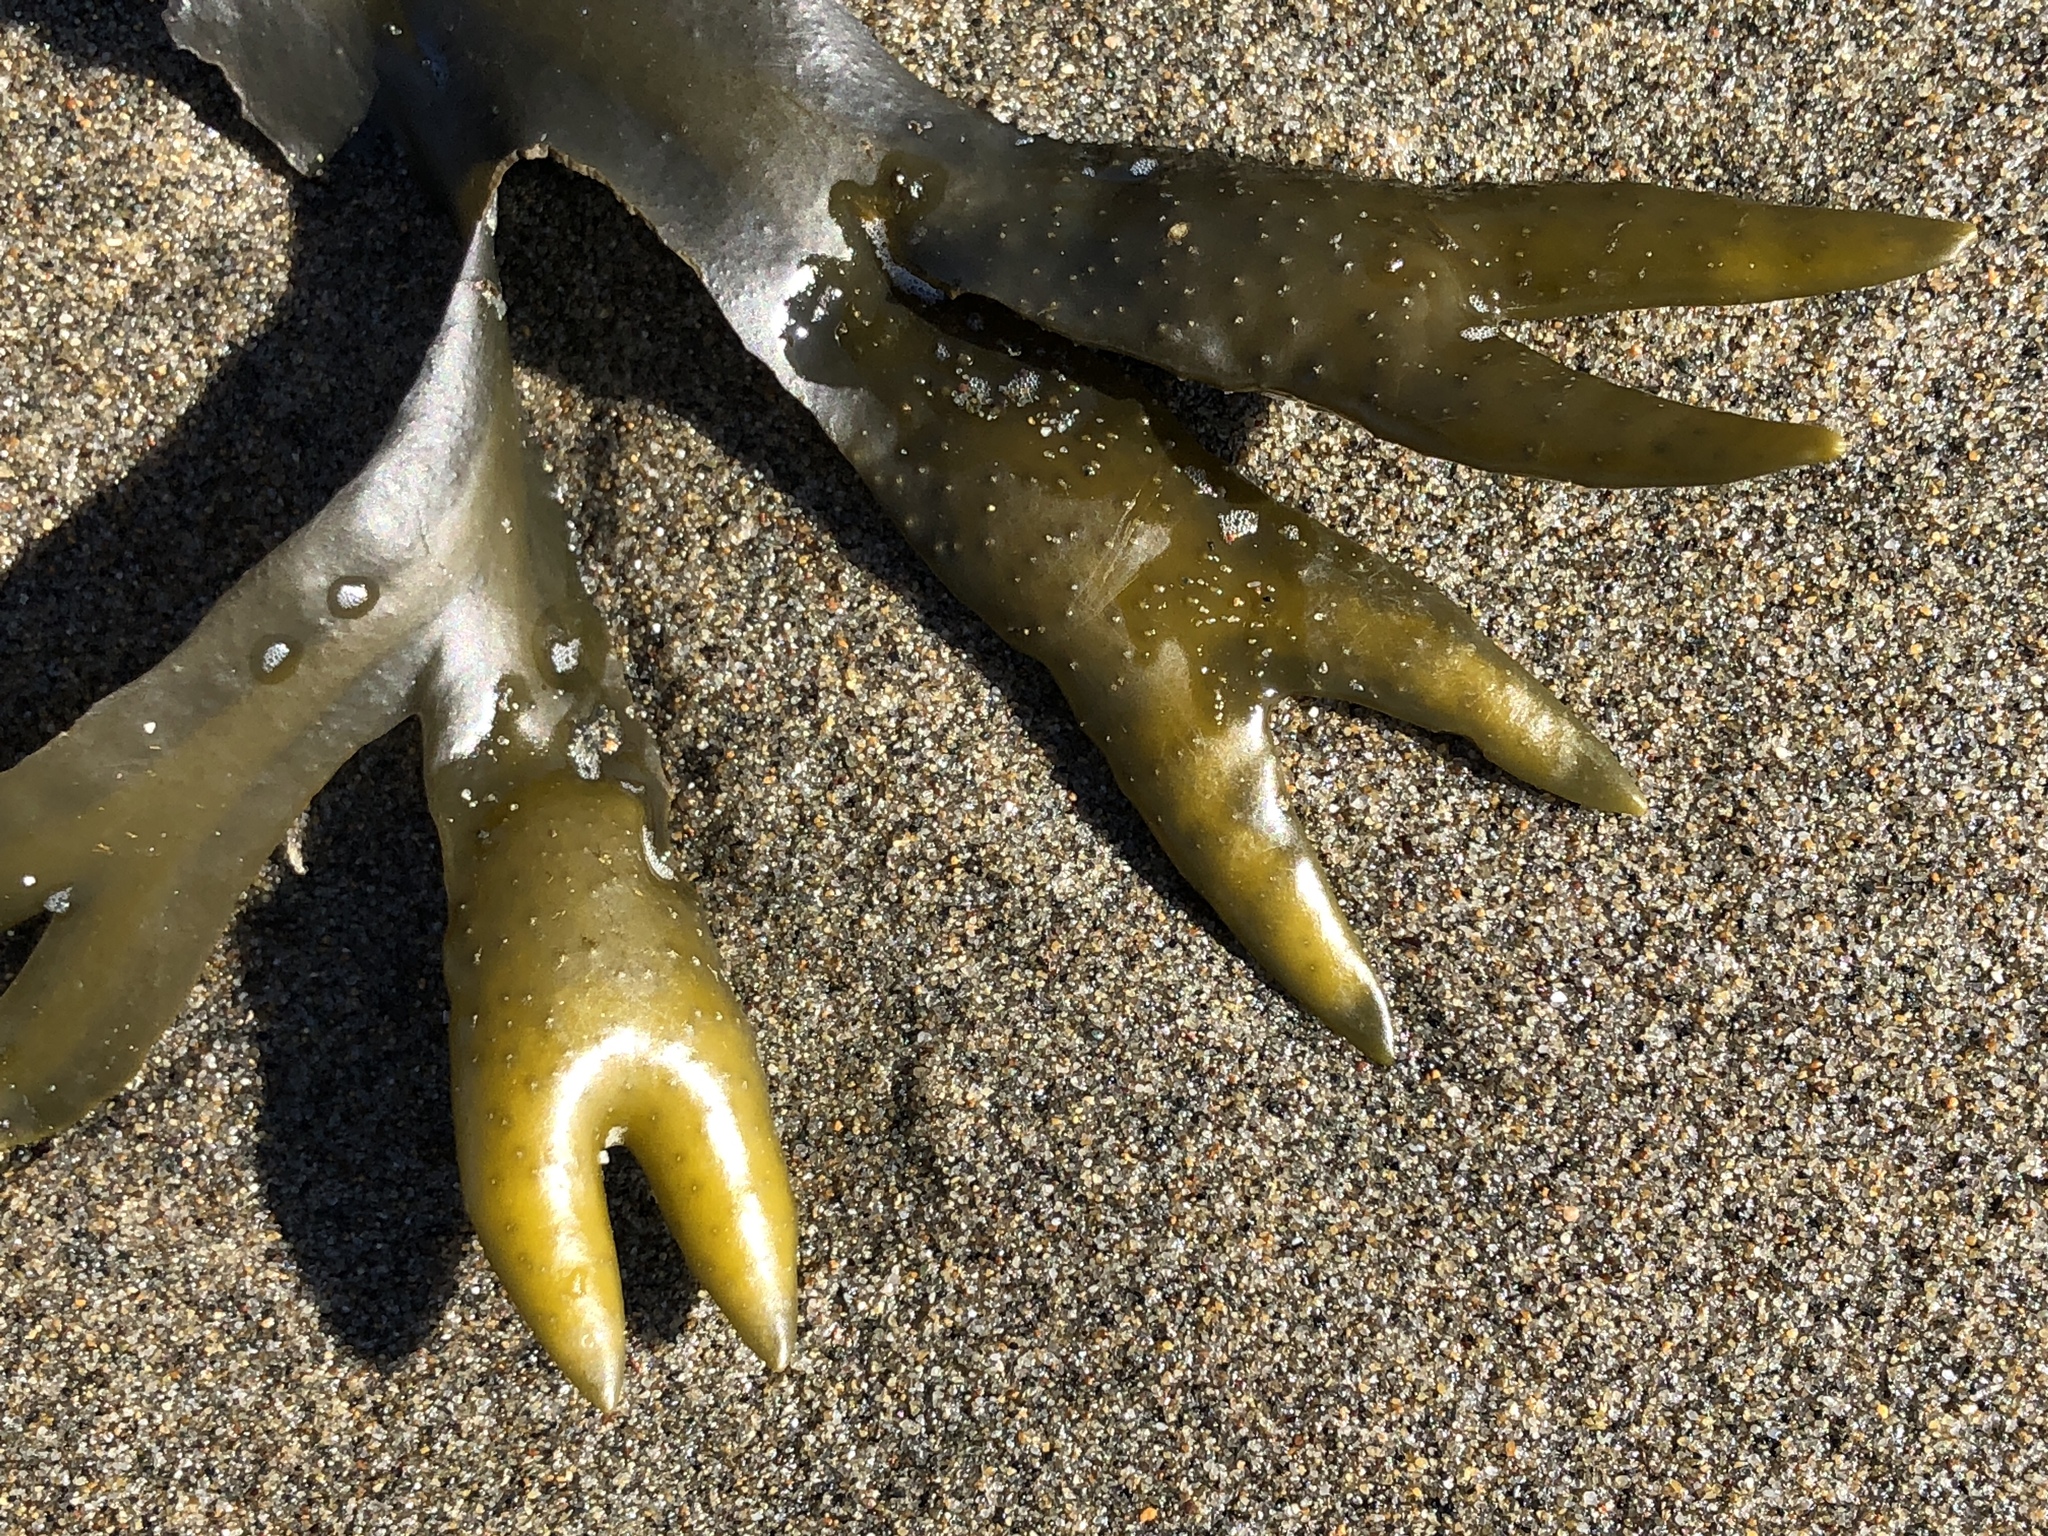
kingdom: Chromista
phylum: Ochrophyta
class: Phaeophyceae
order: Fucales
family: Fucaceae
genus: Fucus
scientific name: Fucus distichus
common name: Rockweed
